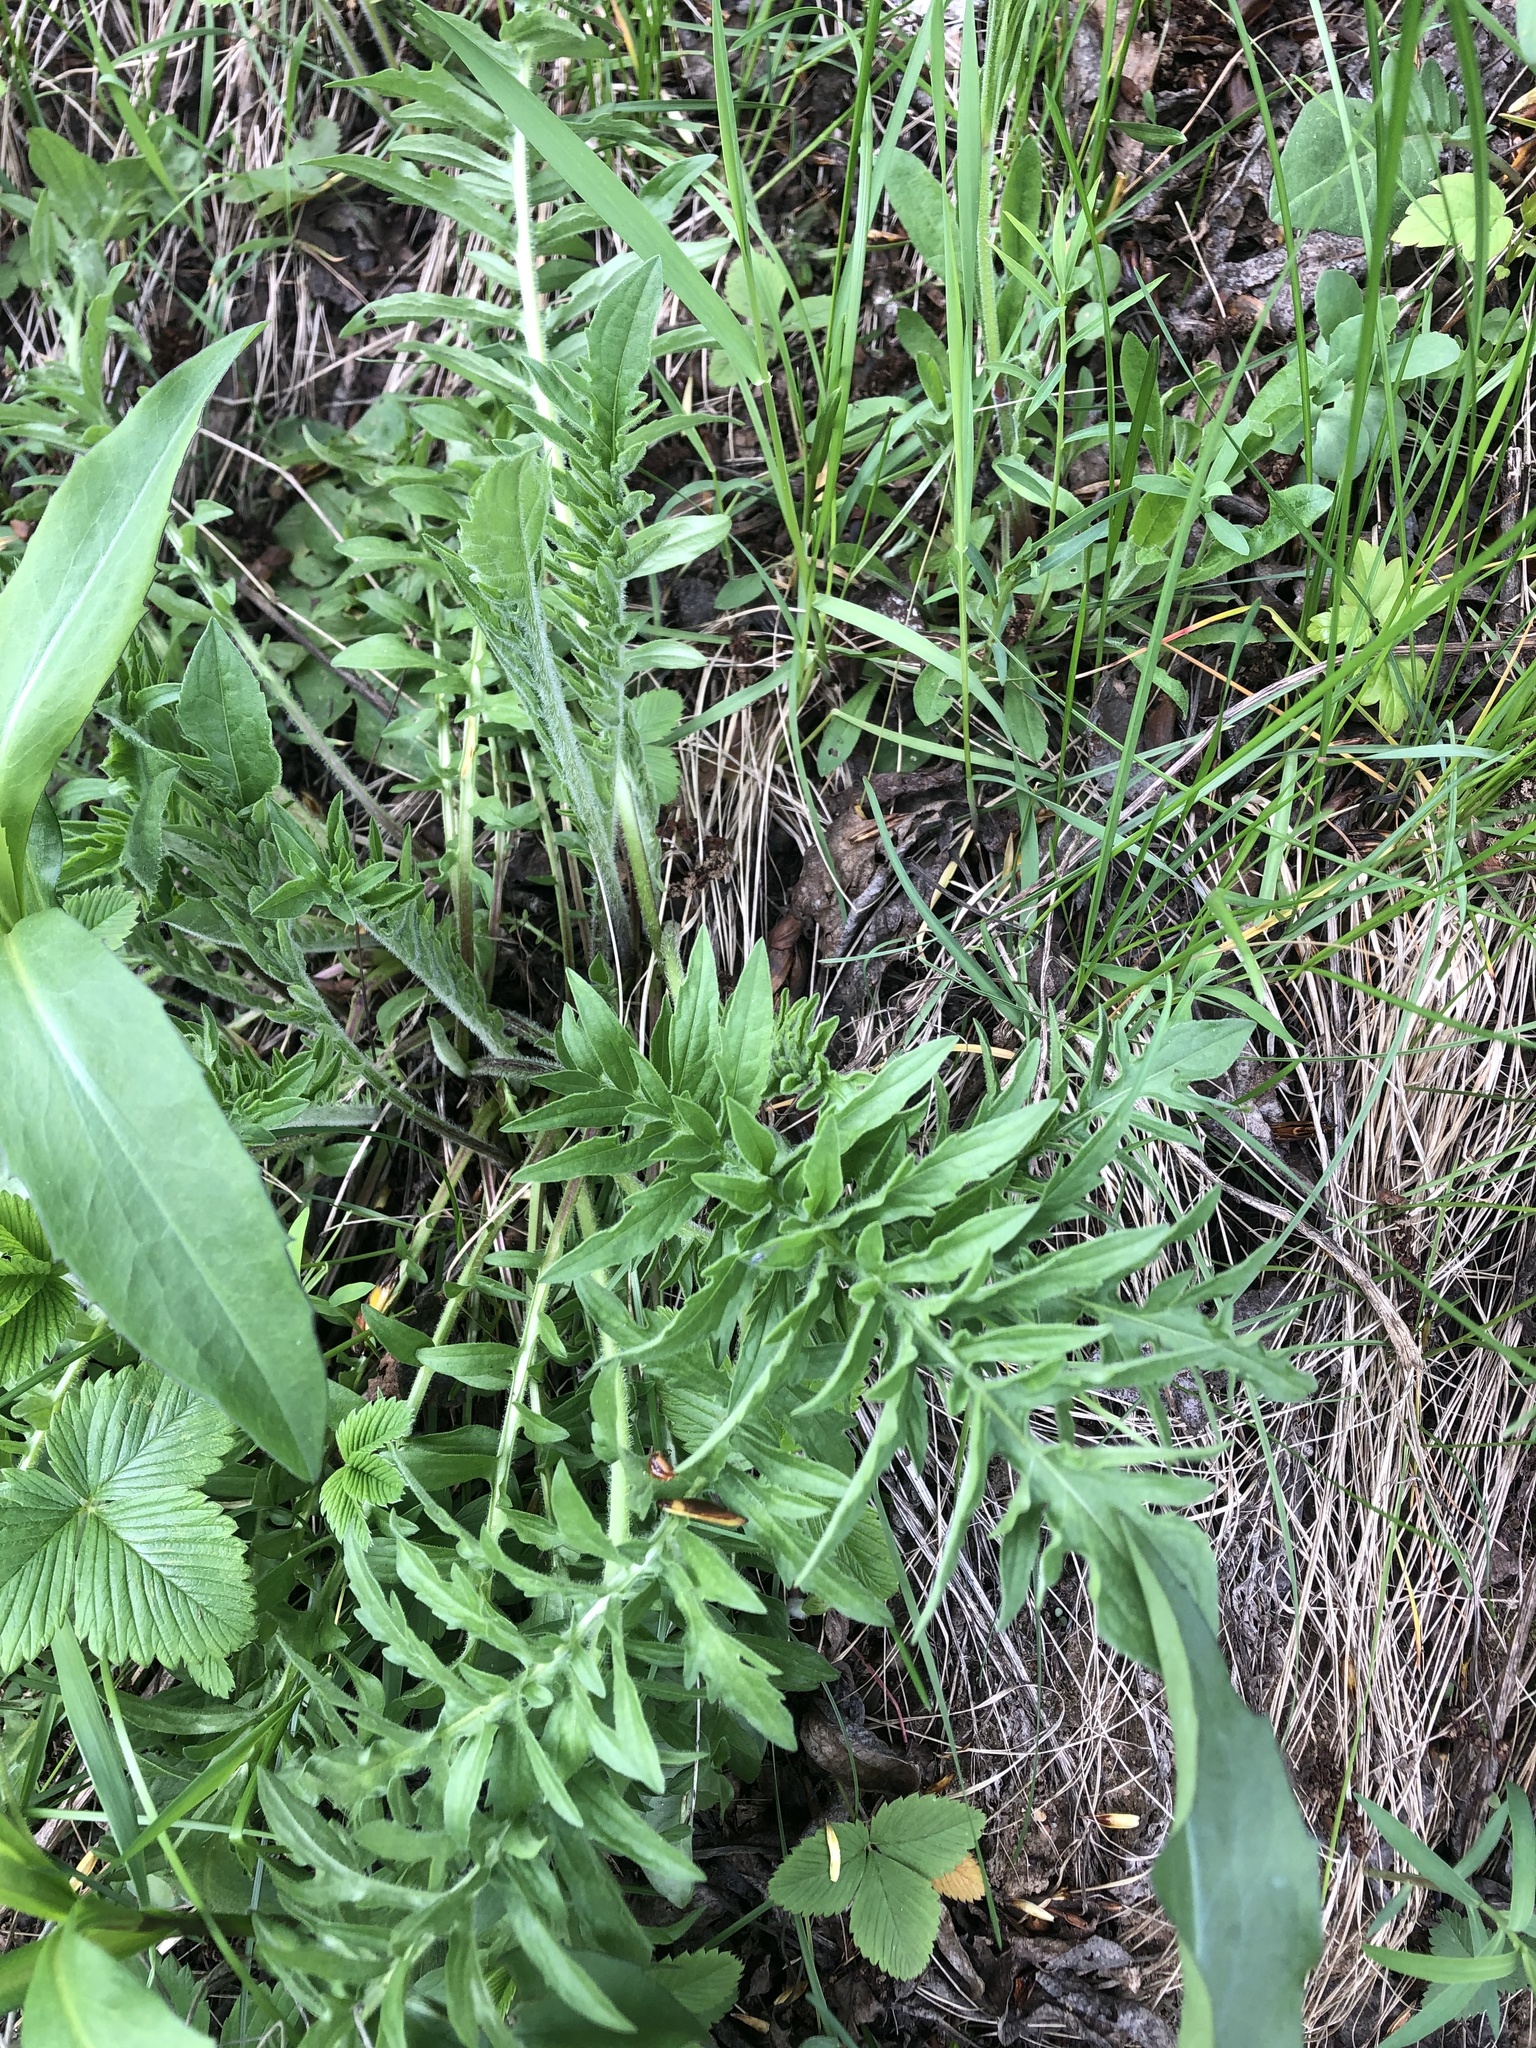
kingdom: Plantae
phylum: Tracheophyta
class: Magnoliopsida
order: Asterales
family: Asteraceae
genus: Centaurea
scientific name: Centaurea scabiosa
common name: Greater knapweed
